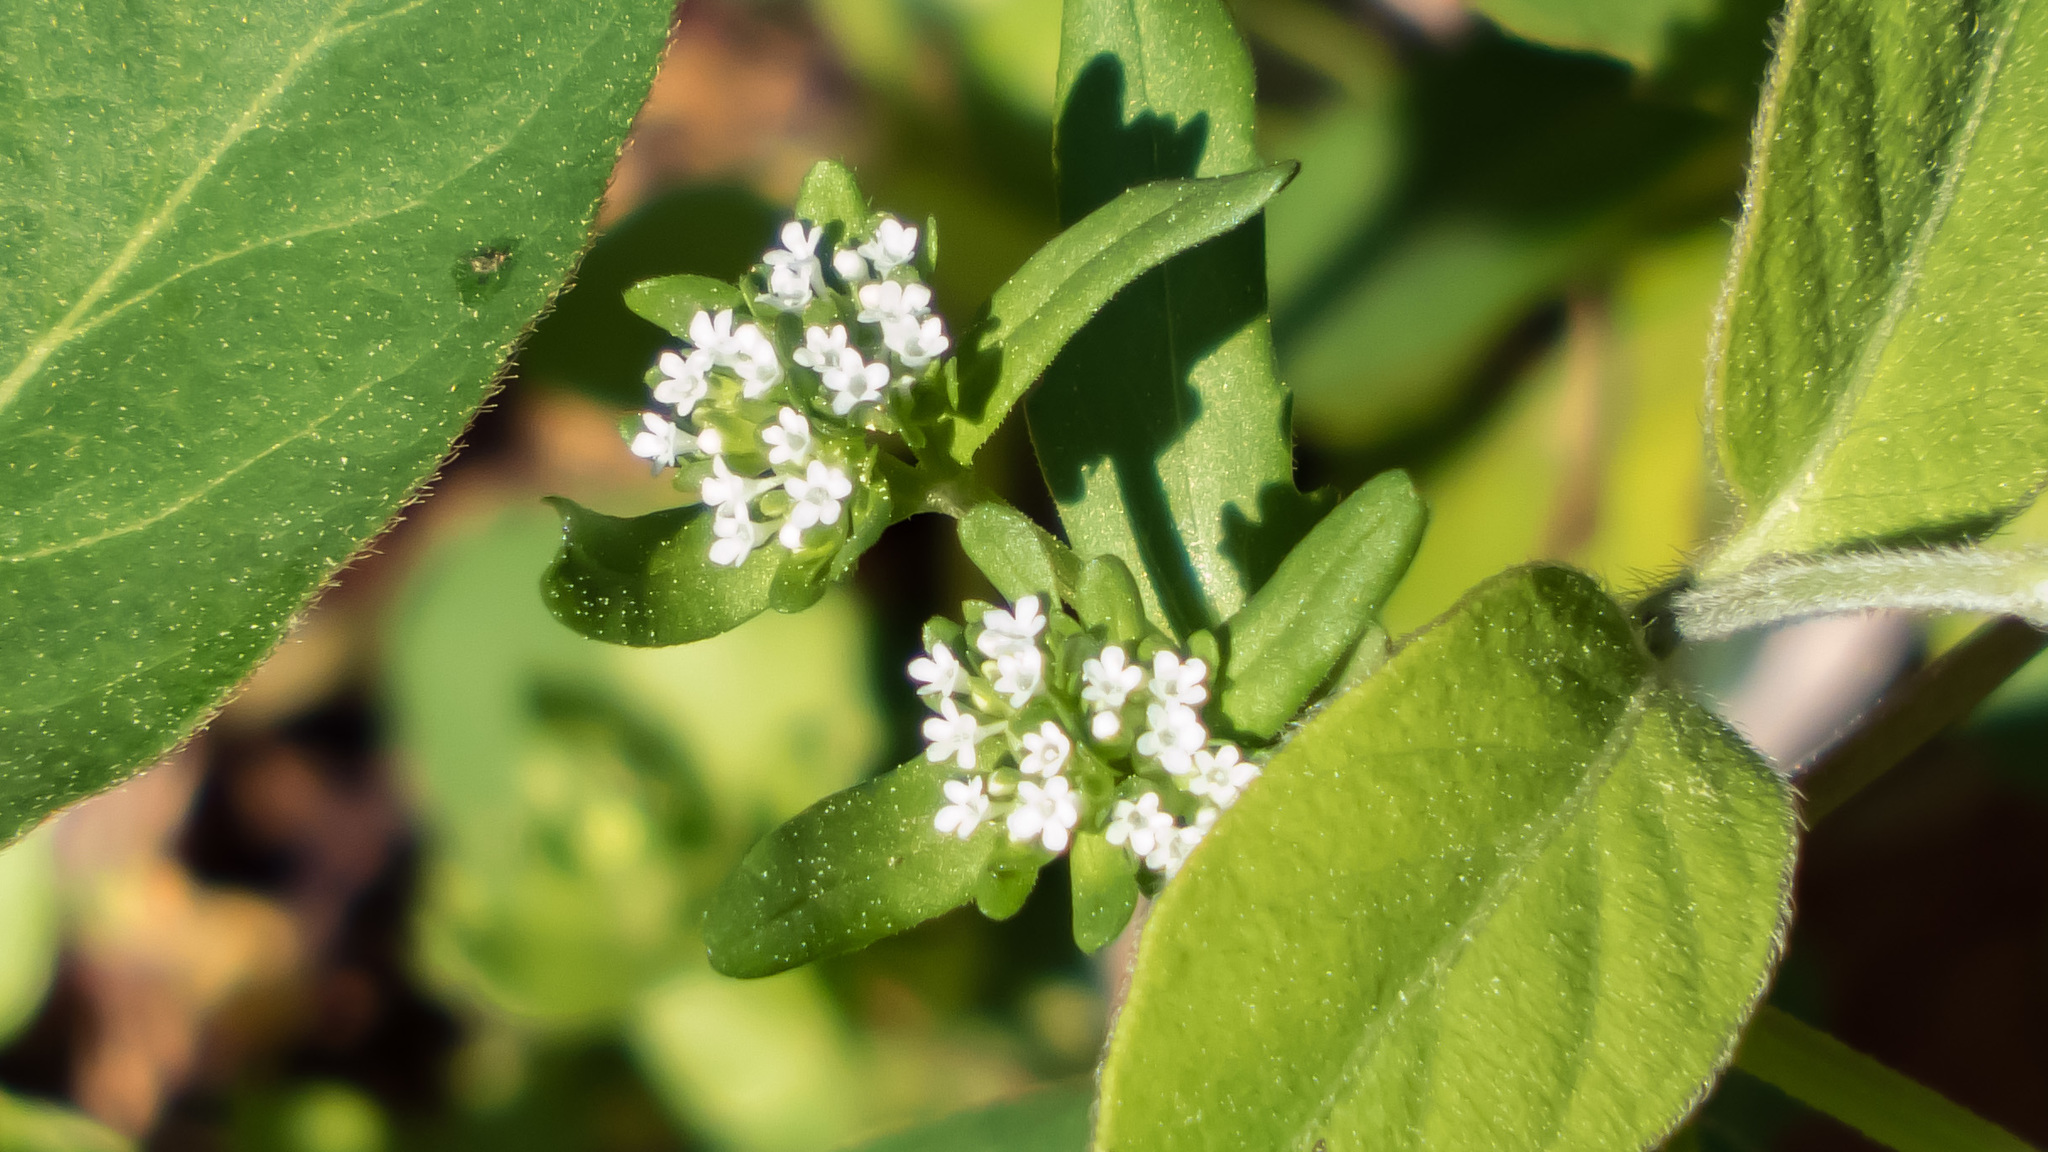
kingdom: Plantae
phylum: Tracheophyta
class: Magnoliopsida
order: Dipsacales
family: Caprifoliaceae
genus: Valerianella
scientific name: Valerianella locusta
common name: Common cornsalad
